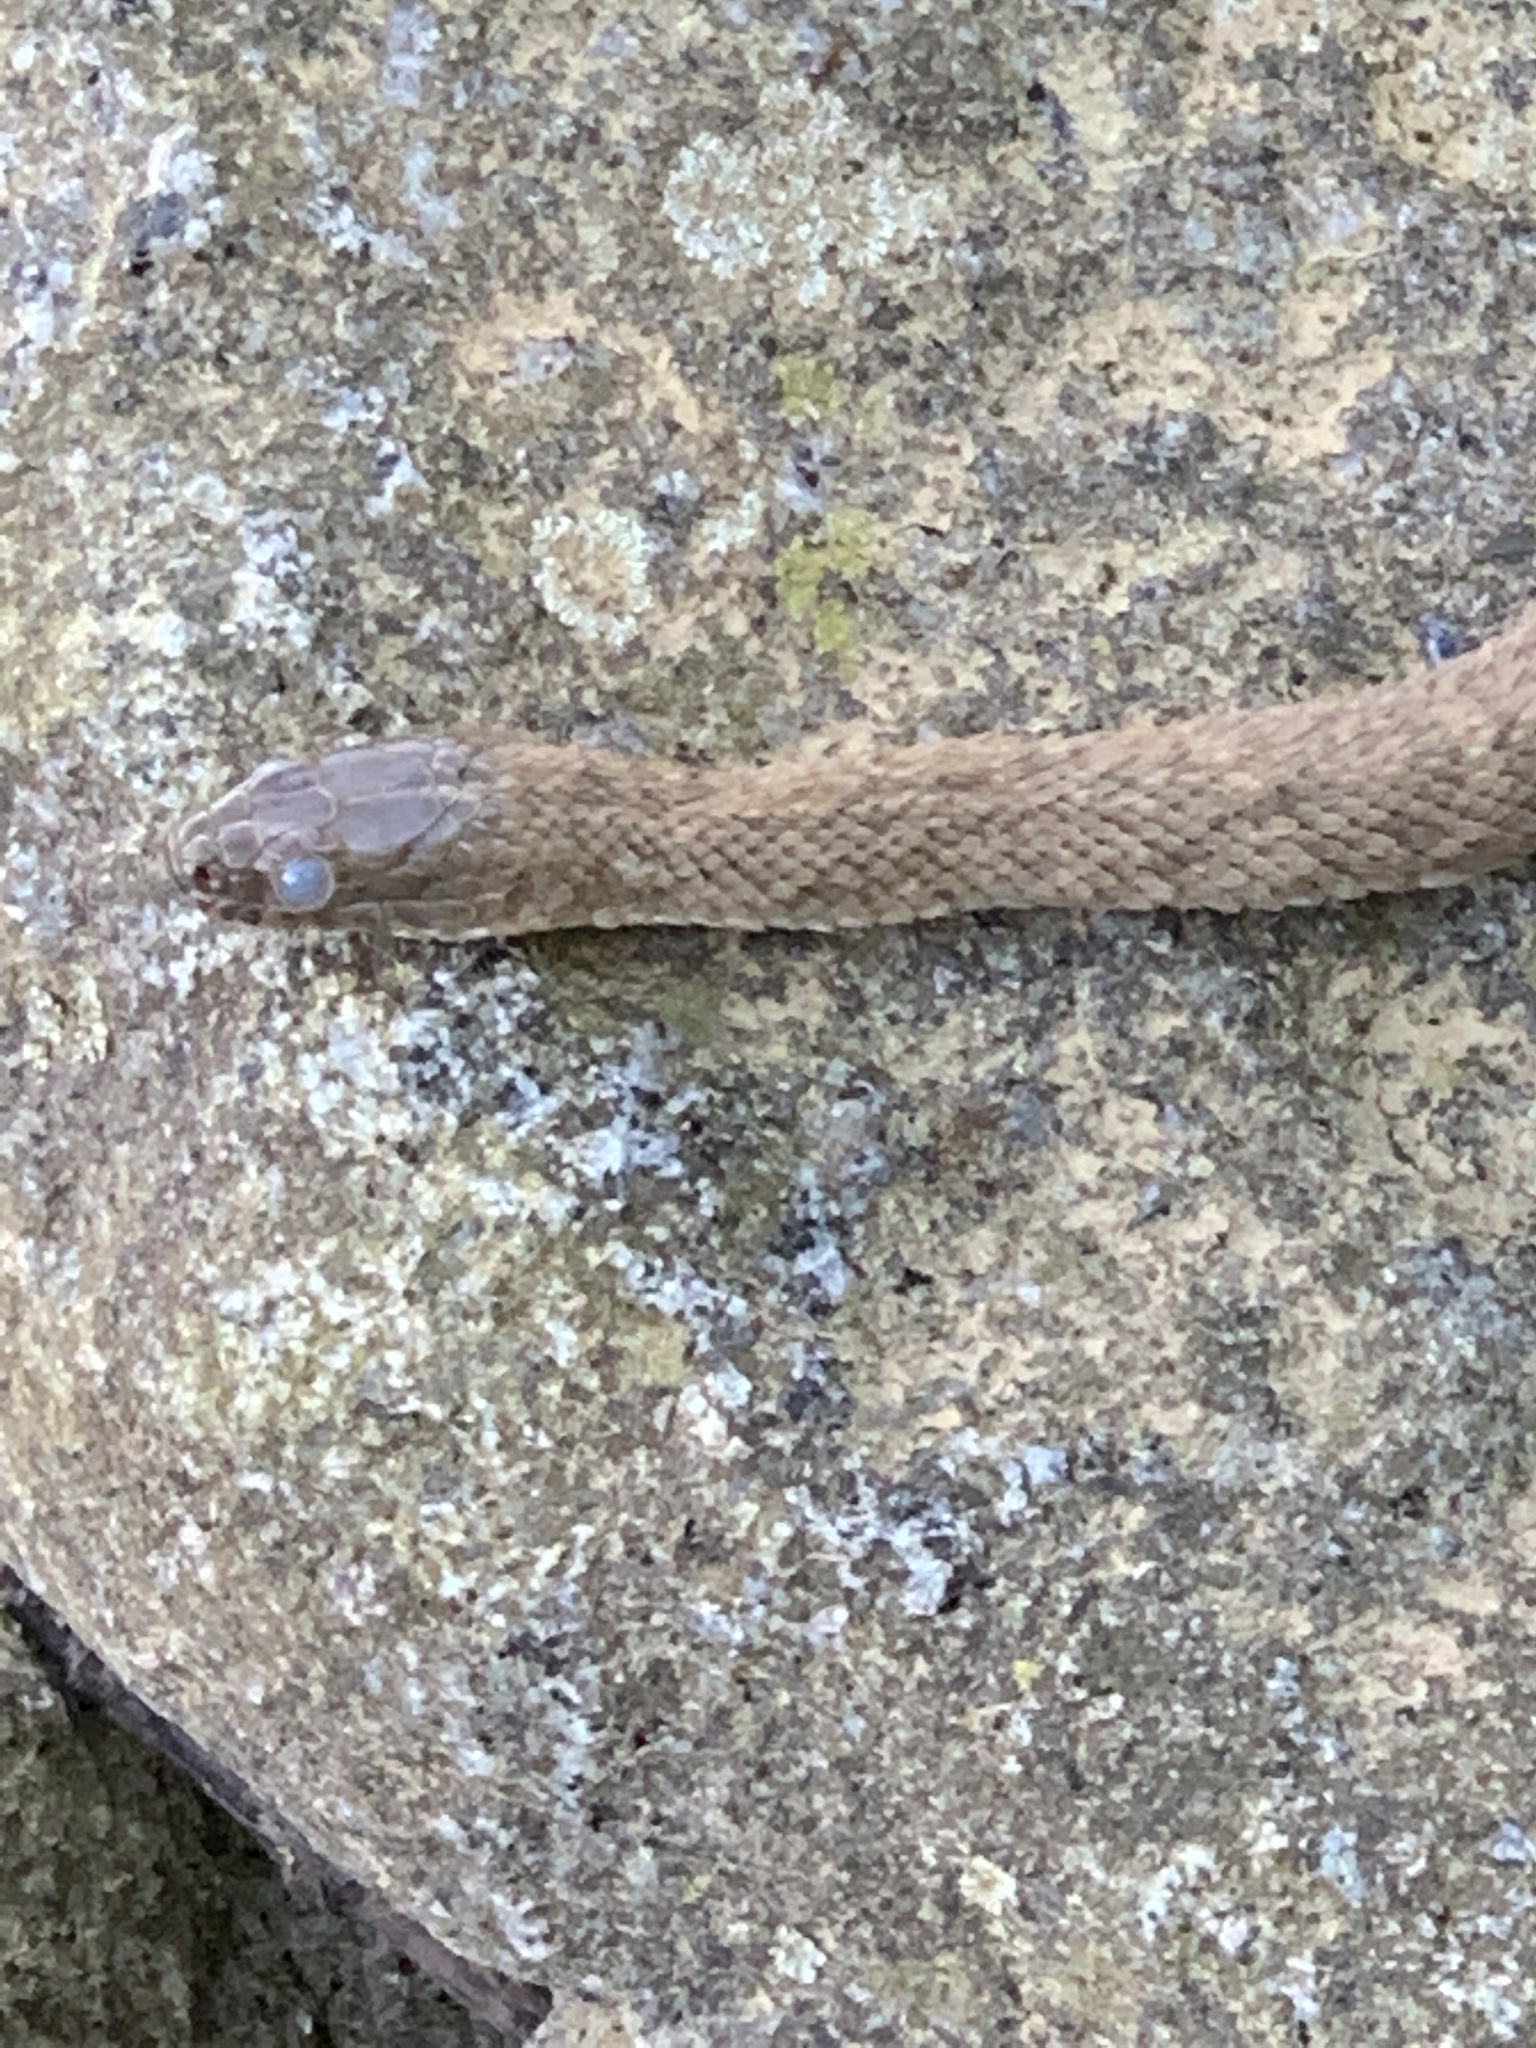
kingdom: Animalia
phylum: Chordata
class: Squamata
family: Colubridae
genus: Nerodia
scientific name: Nerodia sipedon
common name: Northern water snake
